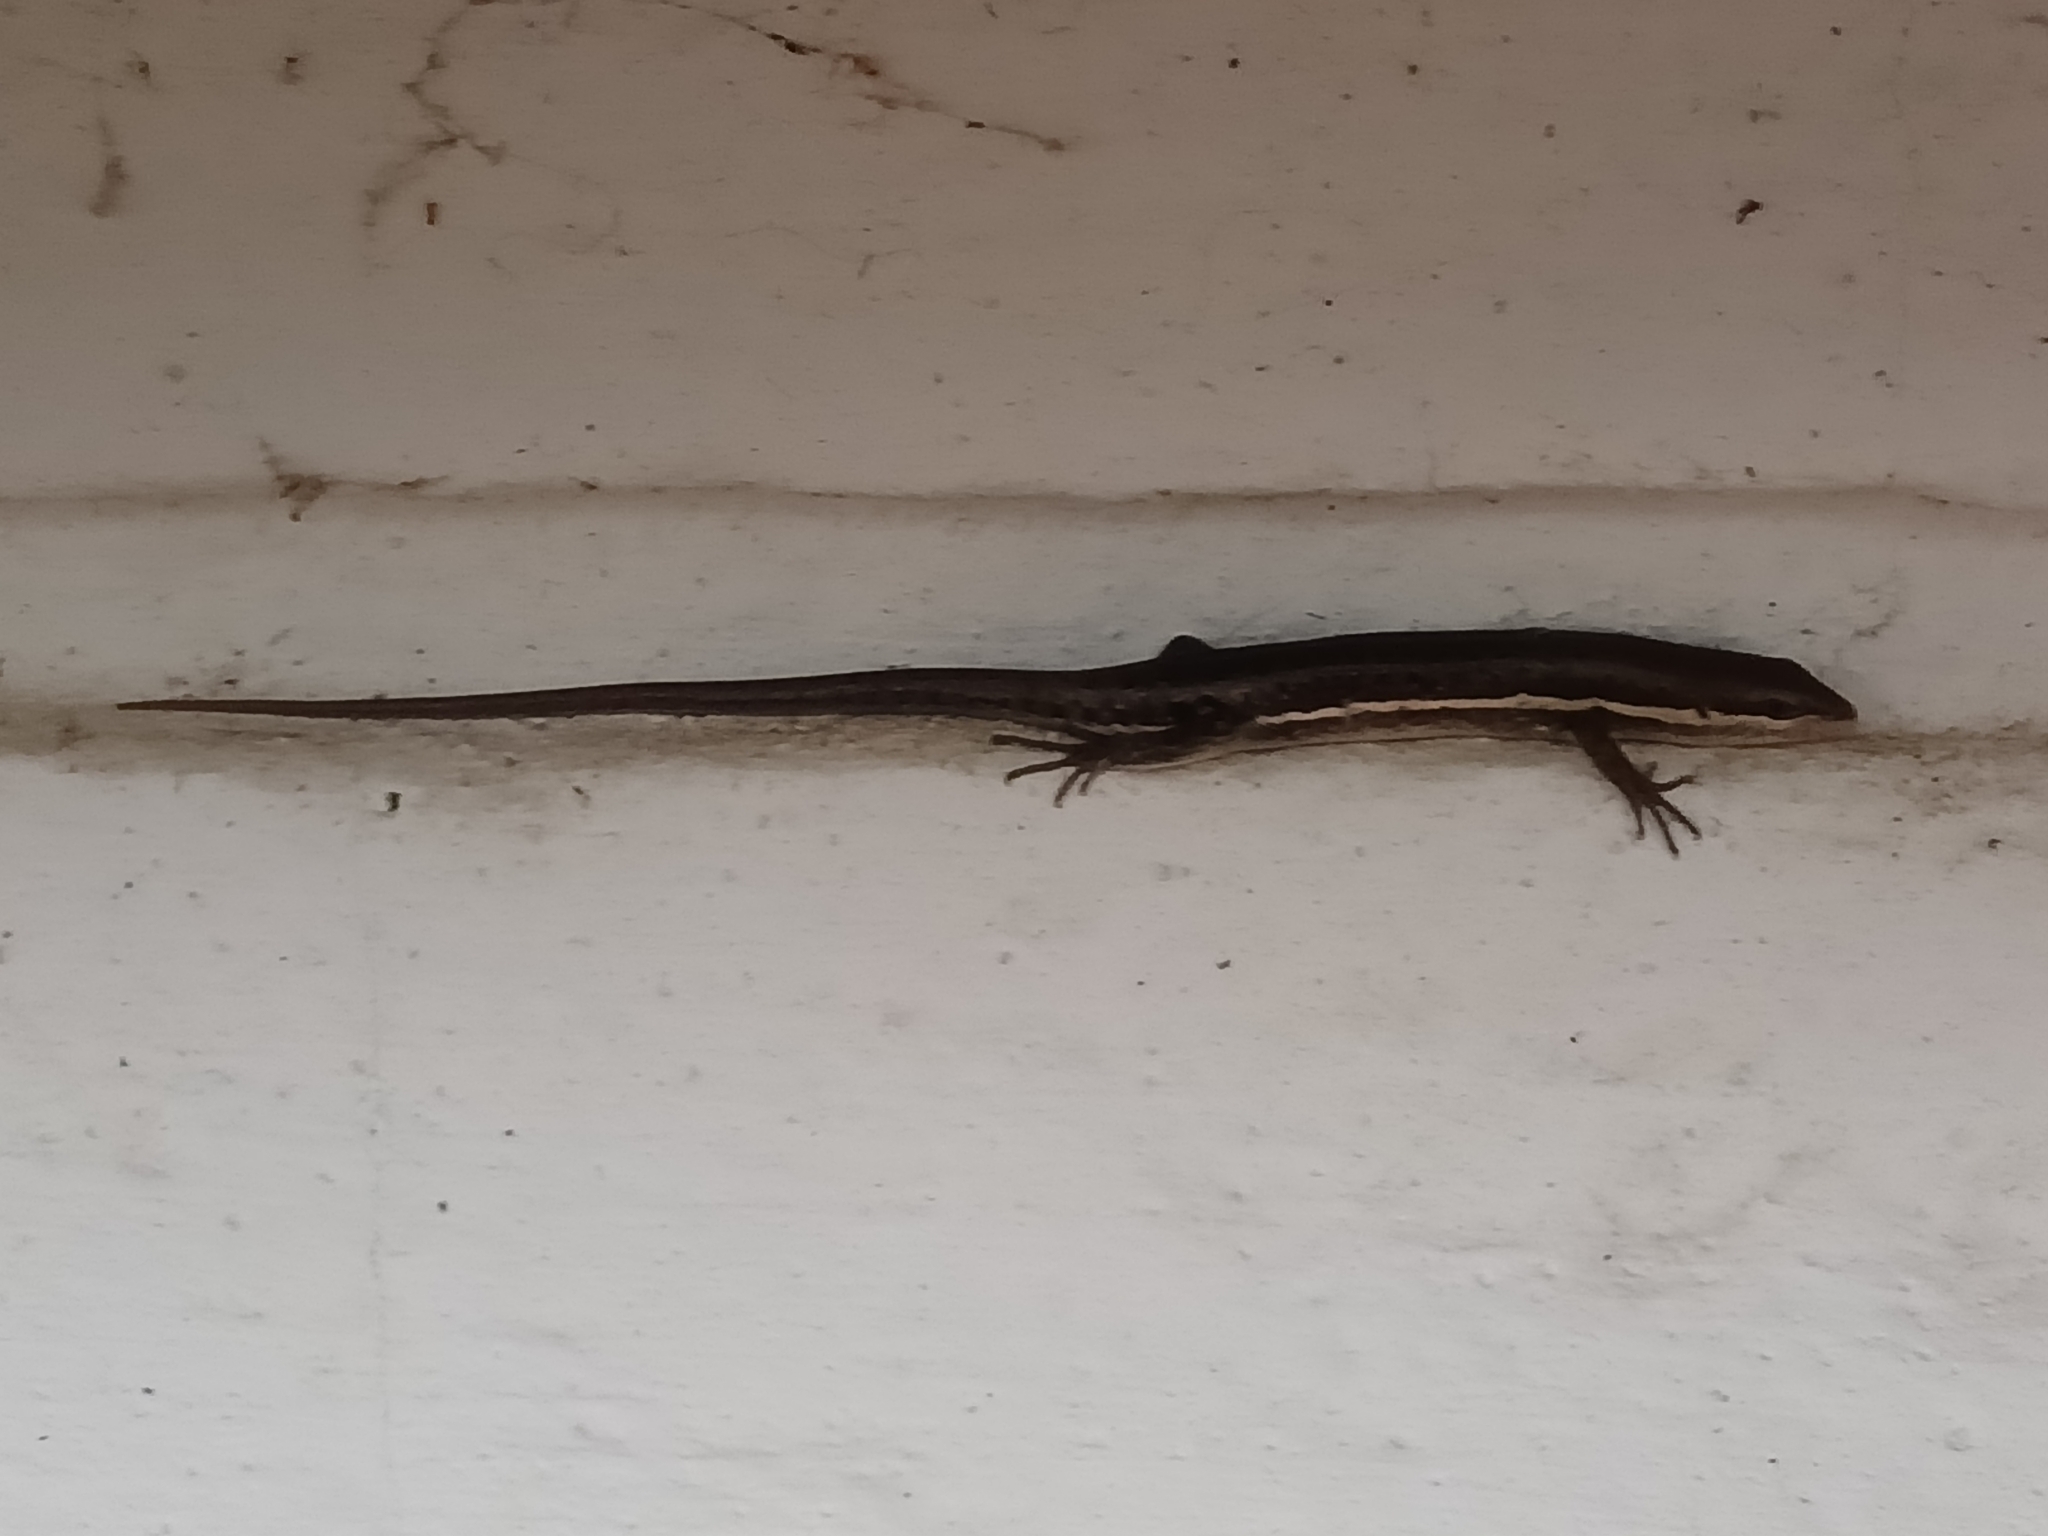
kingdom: Animalia
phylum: Chordata
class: Squamata
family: Scincidae
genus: Trachylepis
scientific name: Trachylepis varia
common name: Eastern variable skink
